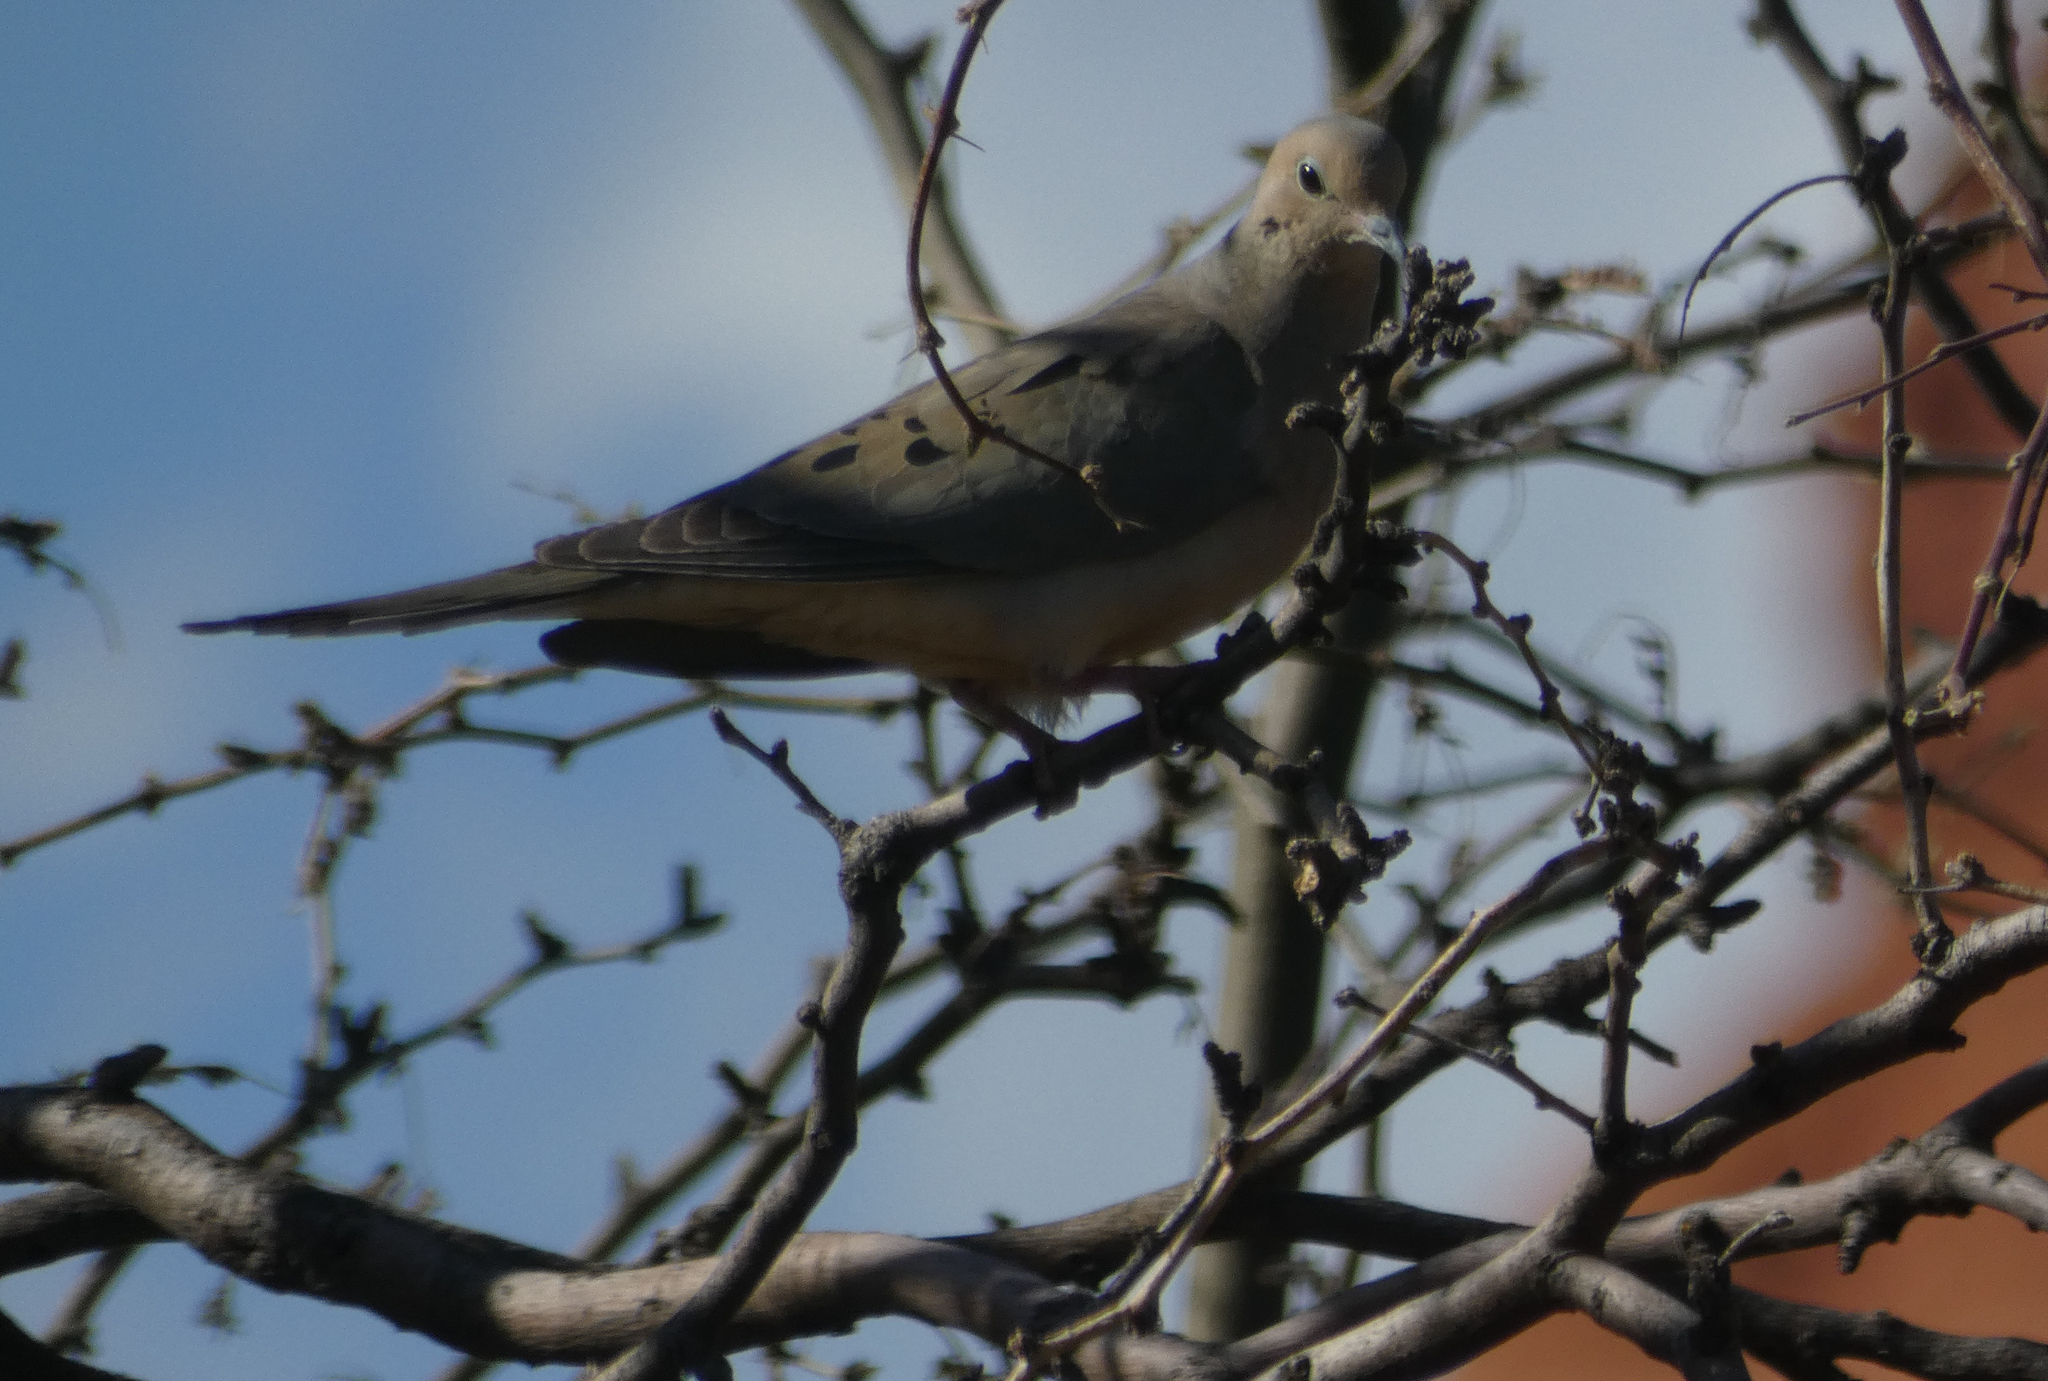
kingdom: Animalia
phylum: Chordata
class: Aves
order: Columbiformes
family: Columbidae
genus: Zenaida
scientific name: Zenaida macroura
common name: Mourning dove
